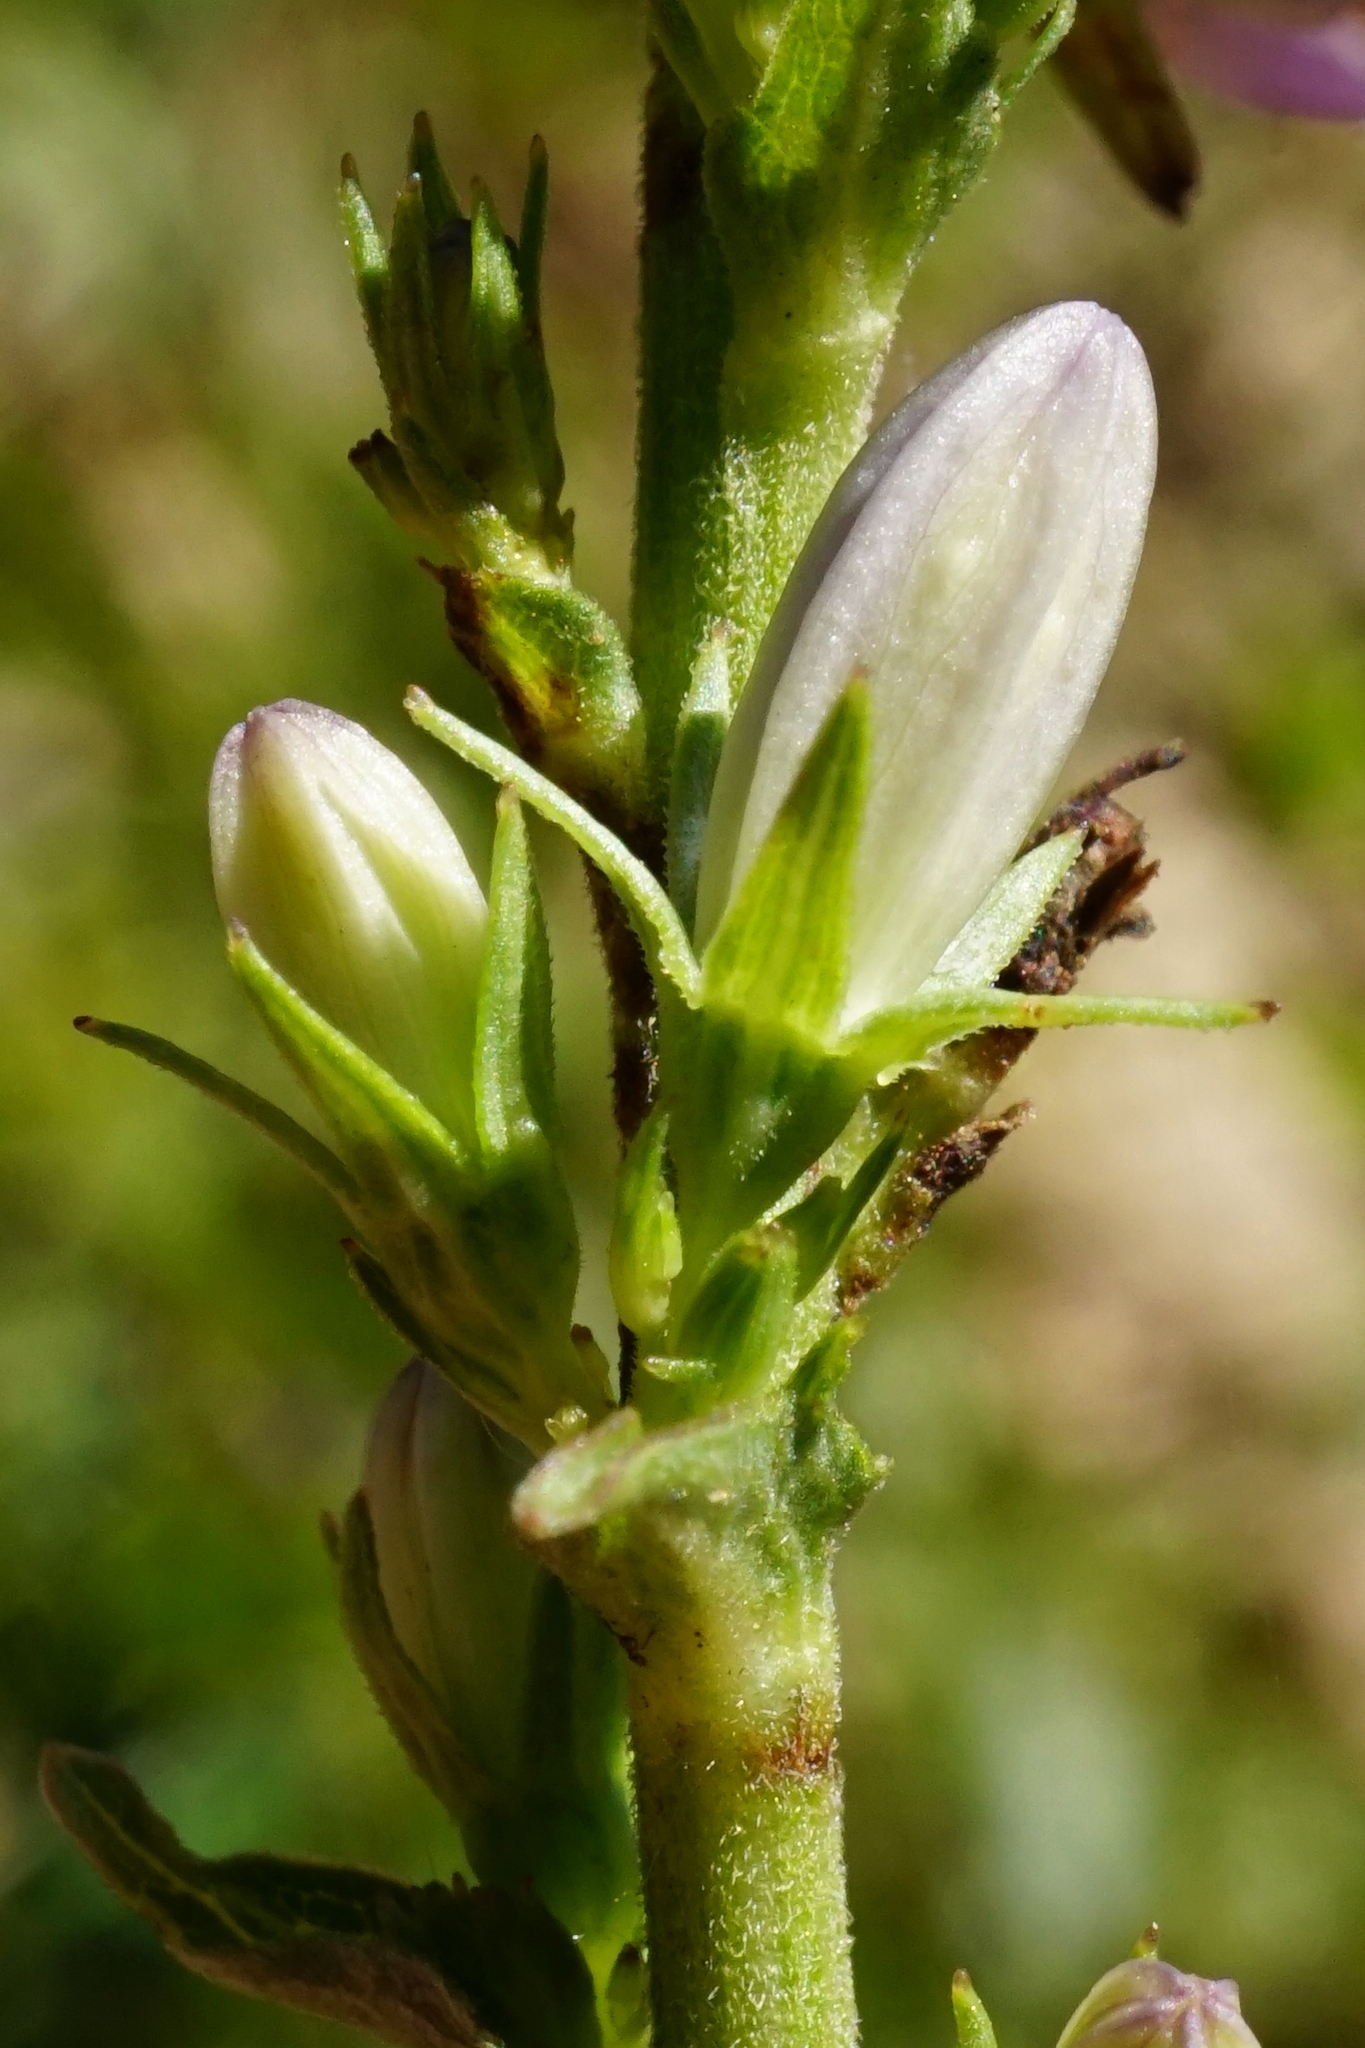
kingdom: Plantae
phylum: Tracheophyta
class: Magnoliopsida
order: Asterales
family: Campanulaceae
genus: Campanula
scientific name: Campanula bononiensis
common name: Pale bellflower
